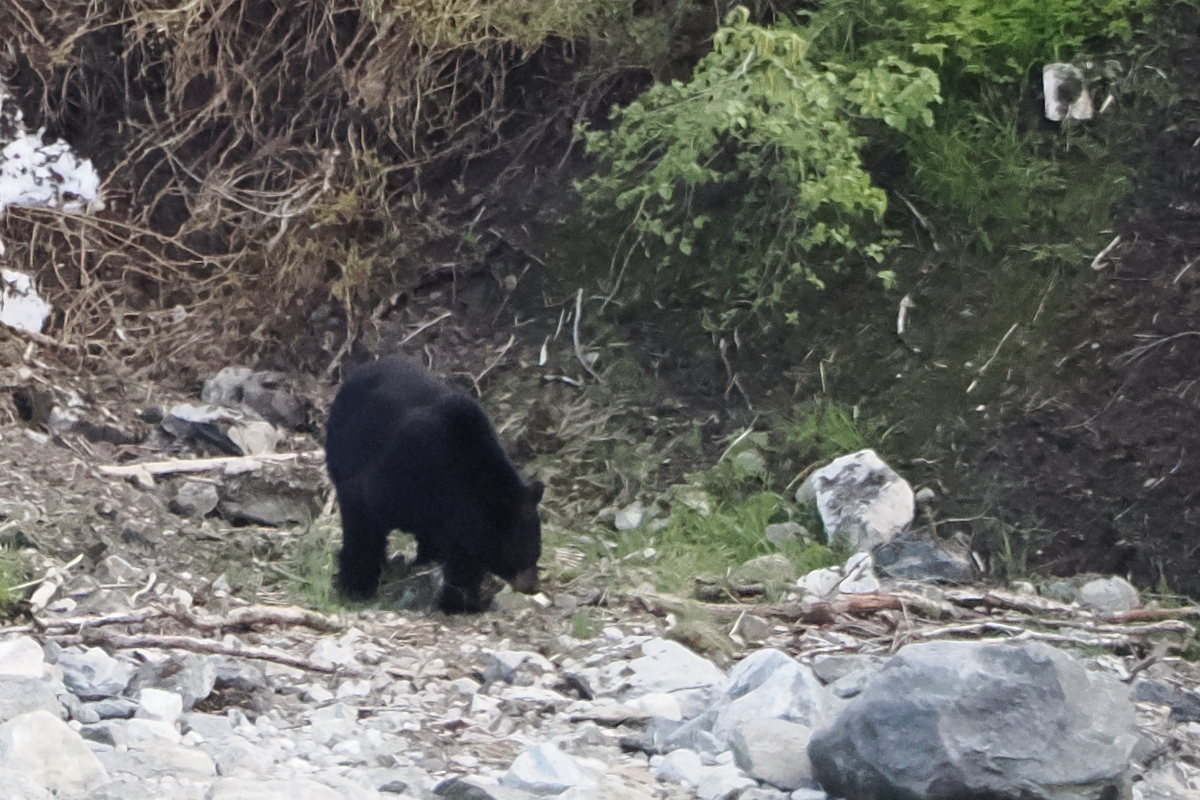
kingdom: Animalia
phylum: Chordata
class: Mammalia
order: Carnivora
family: Ursidae
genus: Ursus
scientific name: Ursus americanus
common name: American black bear
